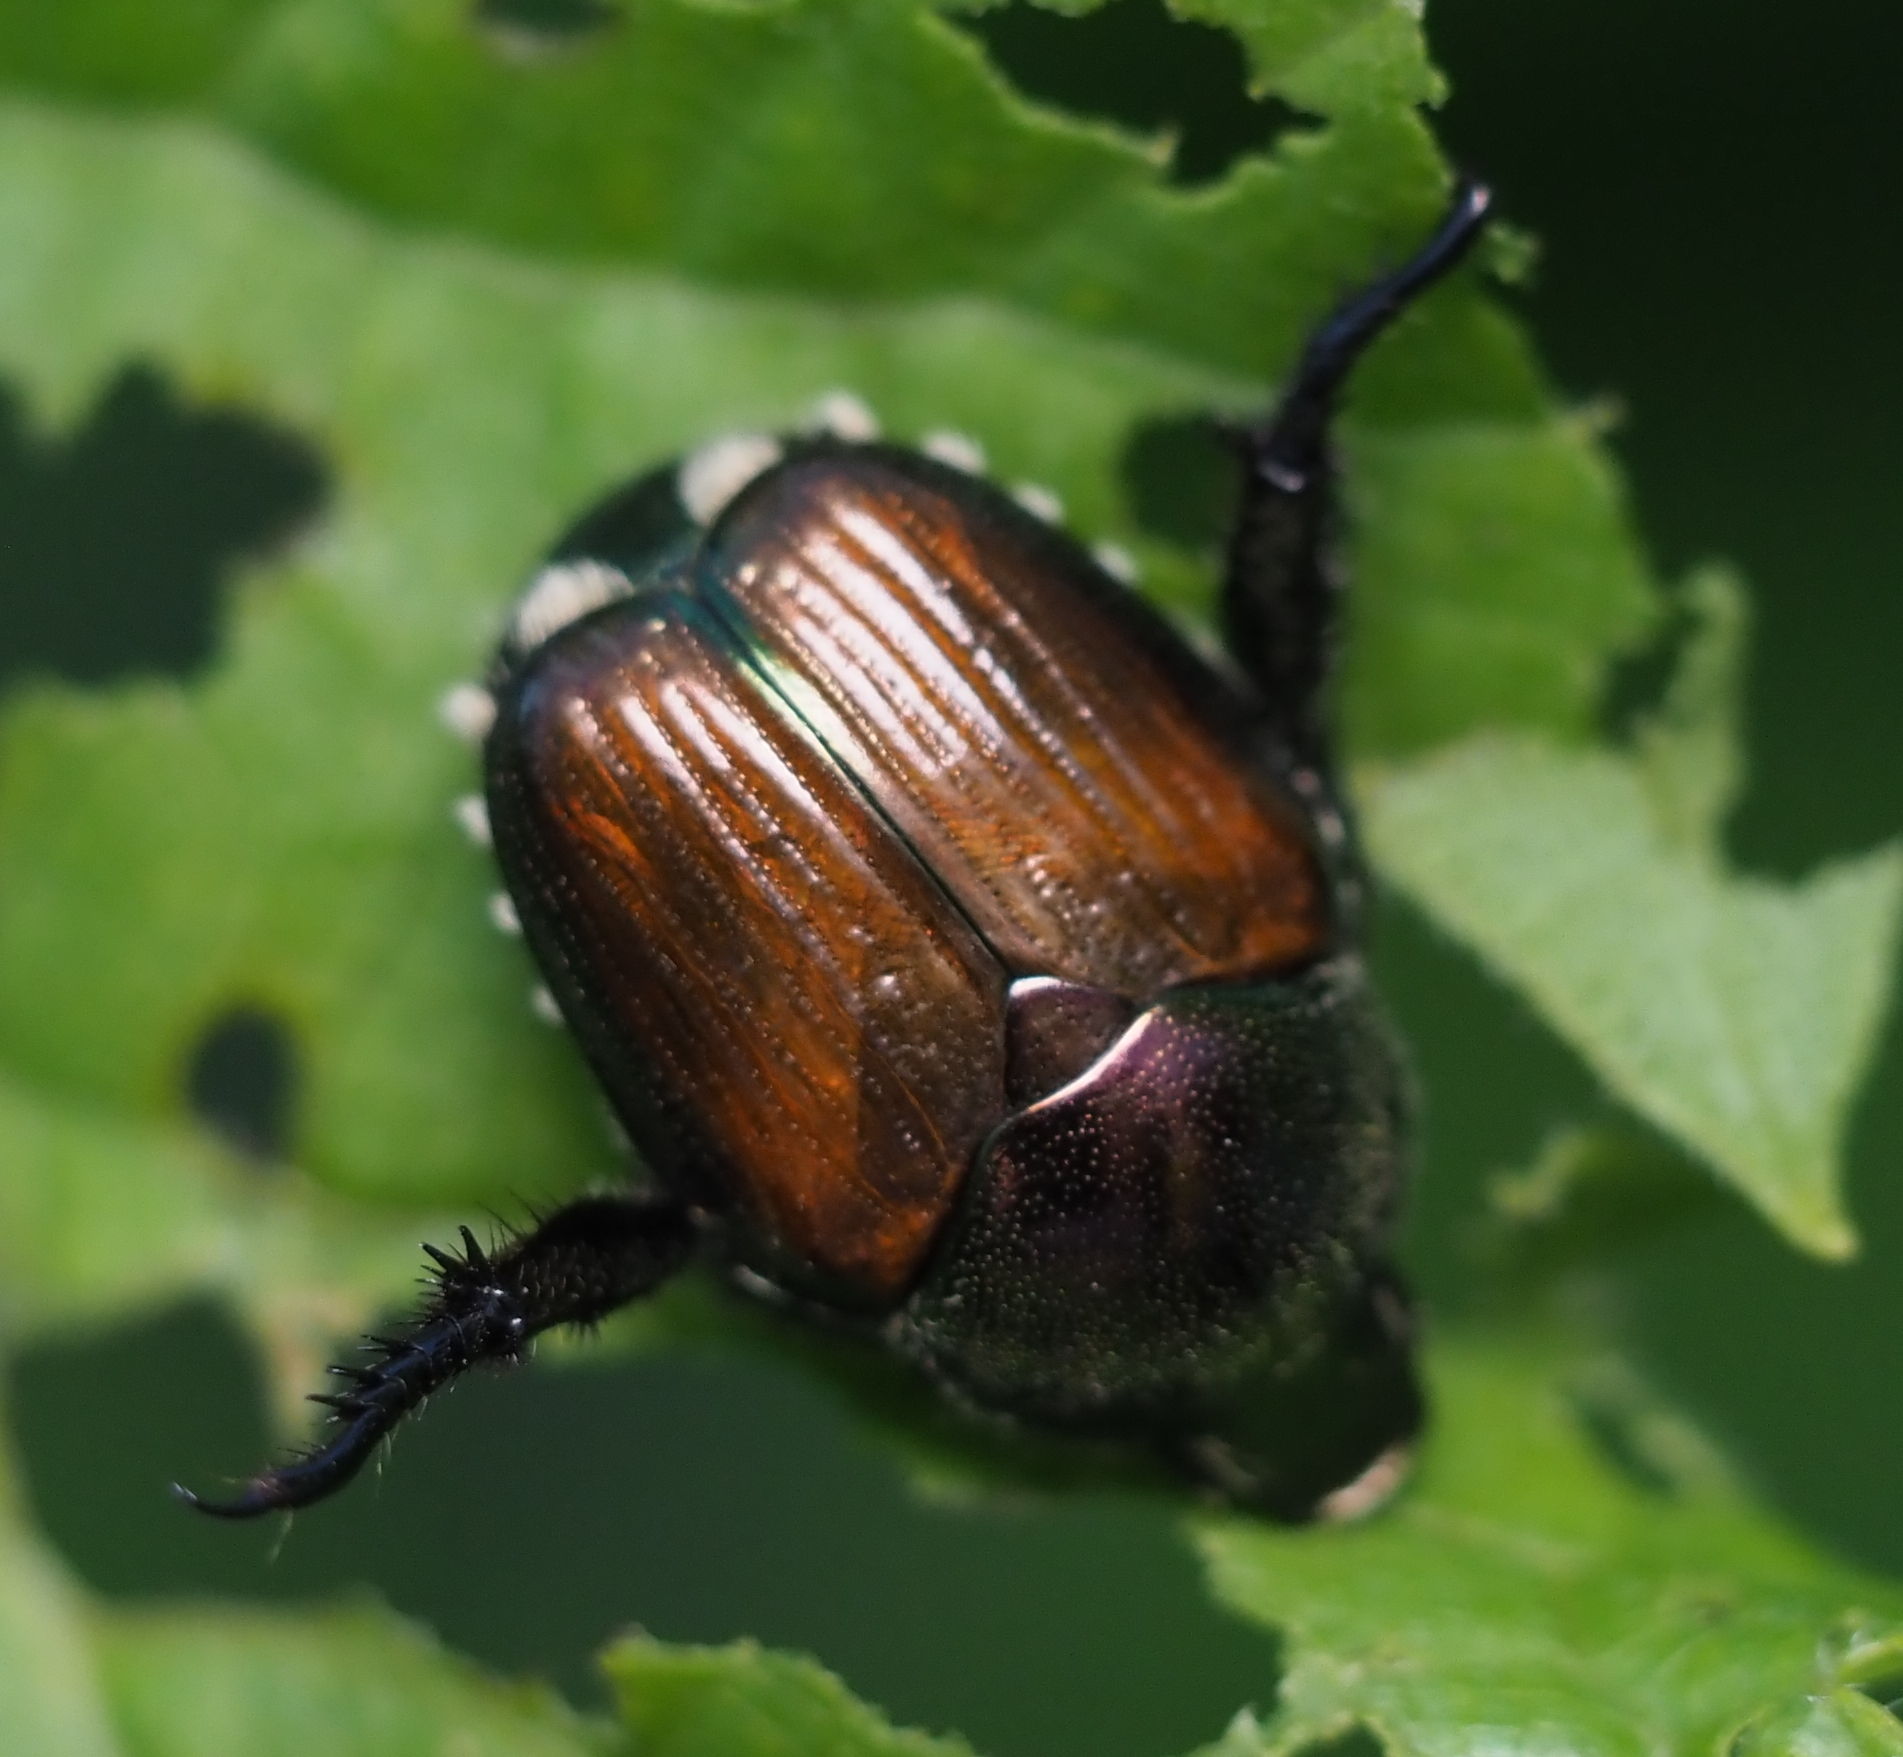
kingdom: Animalia
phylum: Arthropoda
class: Insecta
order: Coleoptera
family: Scarabaeidae
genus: Popillia
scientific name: Popillia japonica
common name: Japanese beetle
